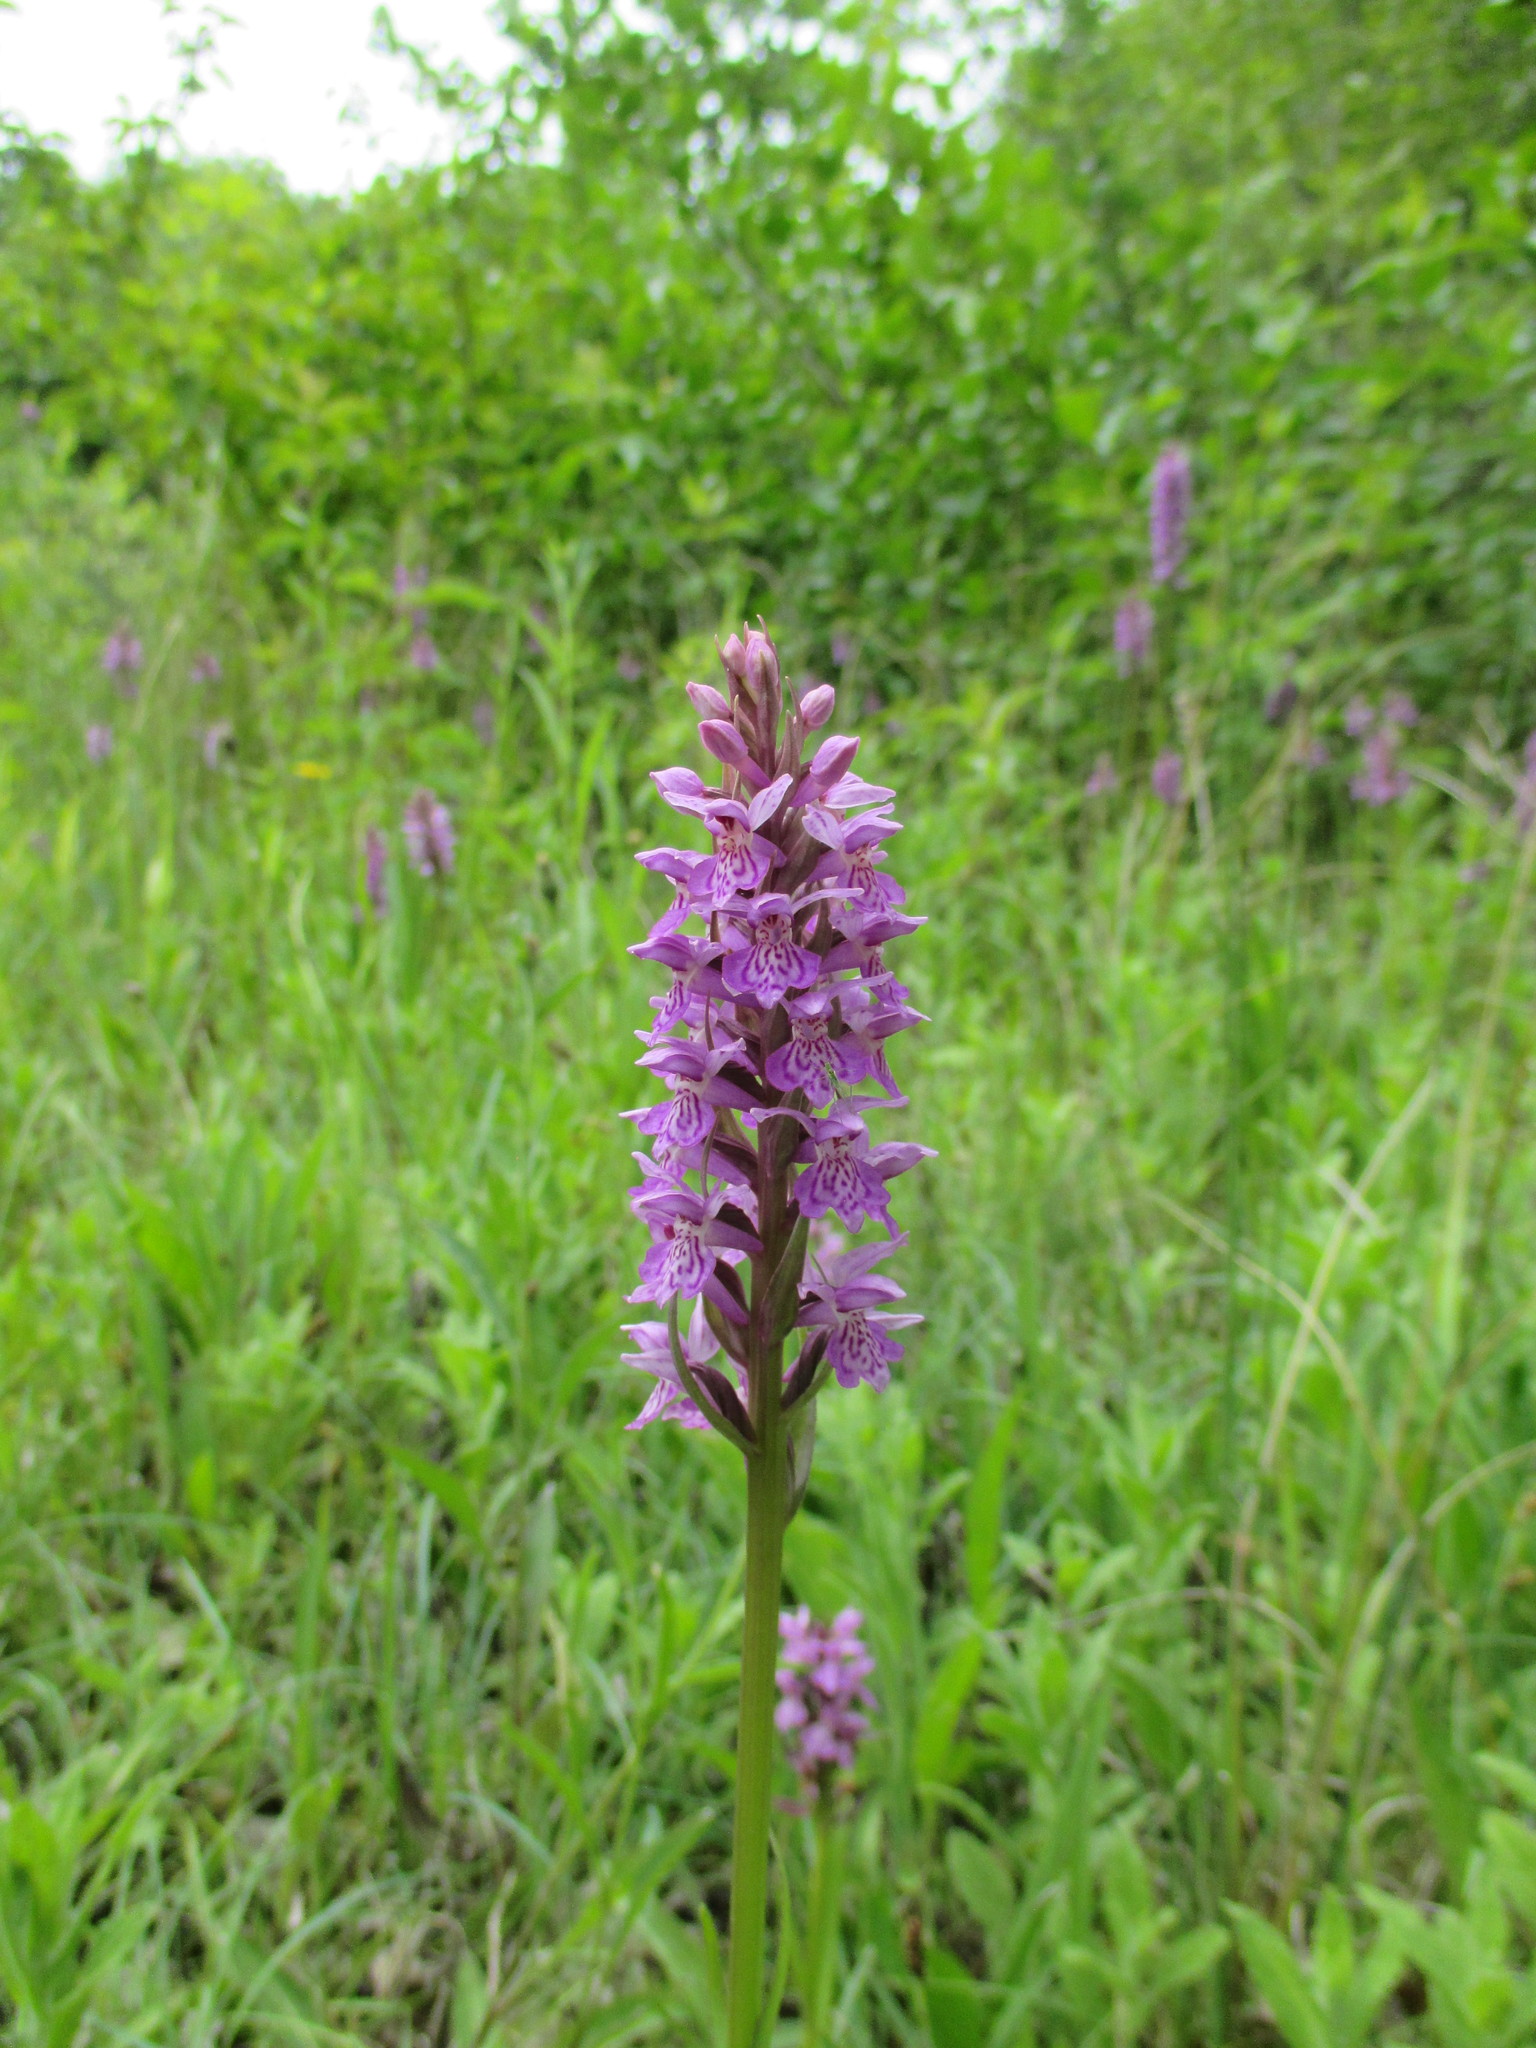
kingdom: Plantae
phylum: Tracheophyta
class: Liliopsida
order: Asparagales
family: Orchidaceae
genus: Dactylorhiza
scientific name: Dactylorhiza grandis
